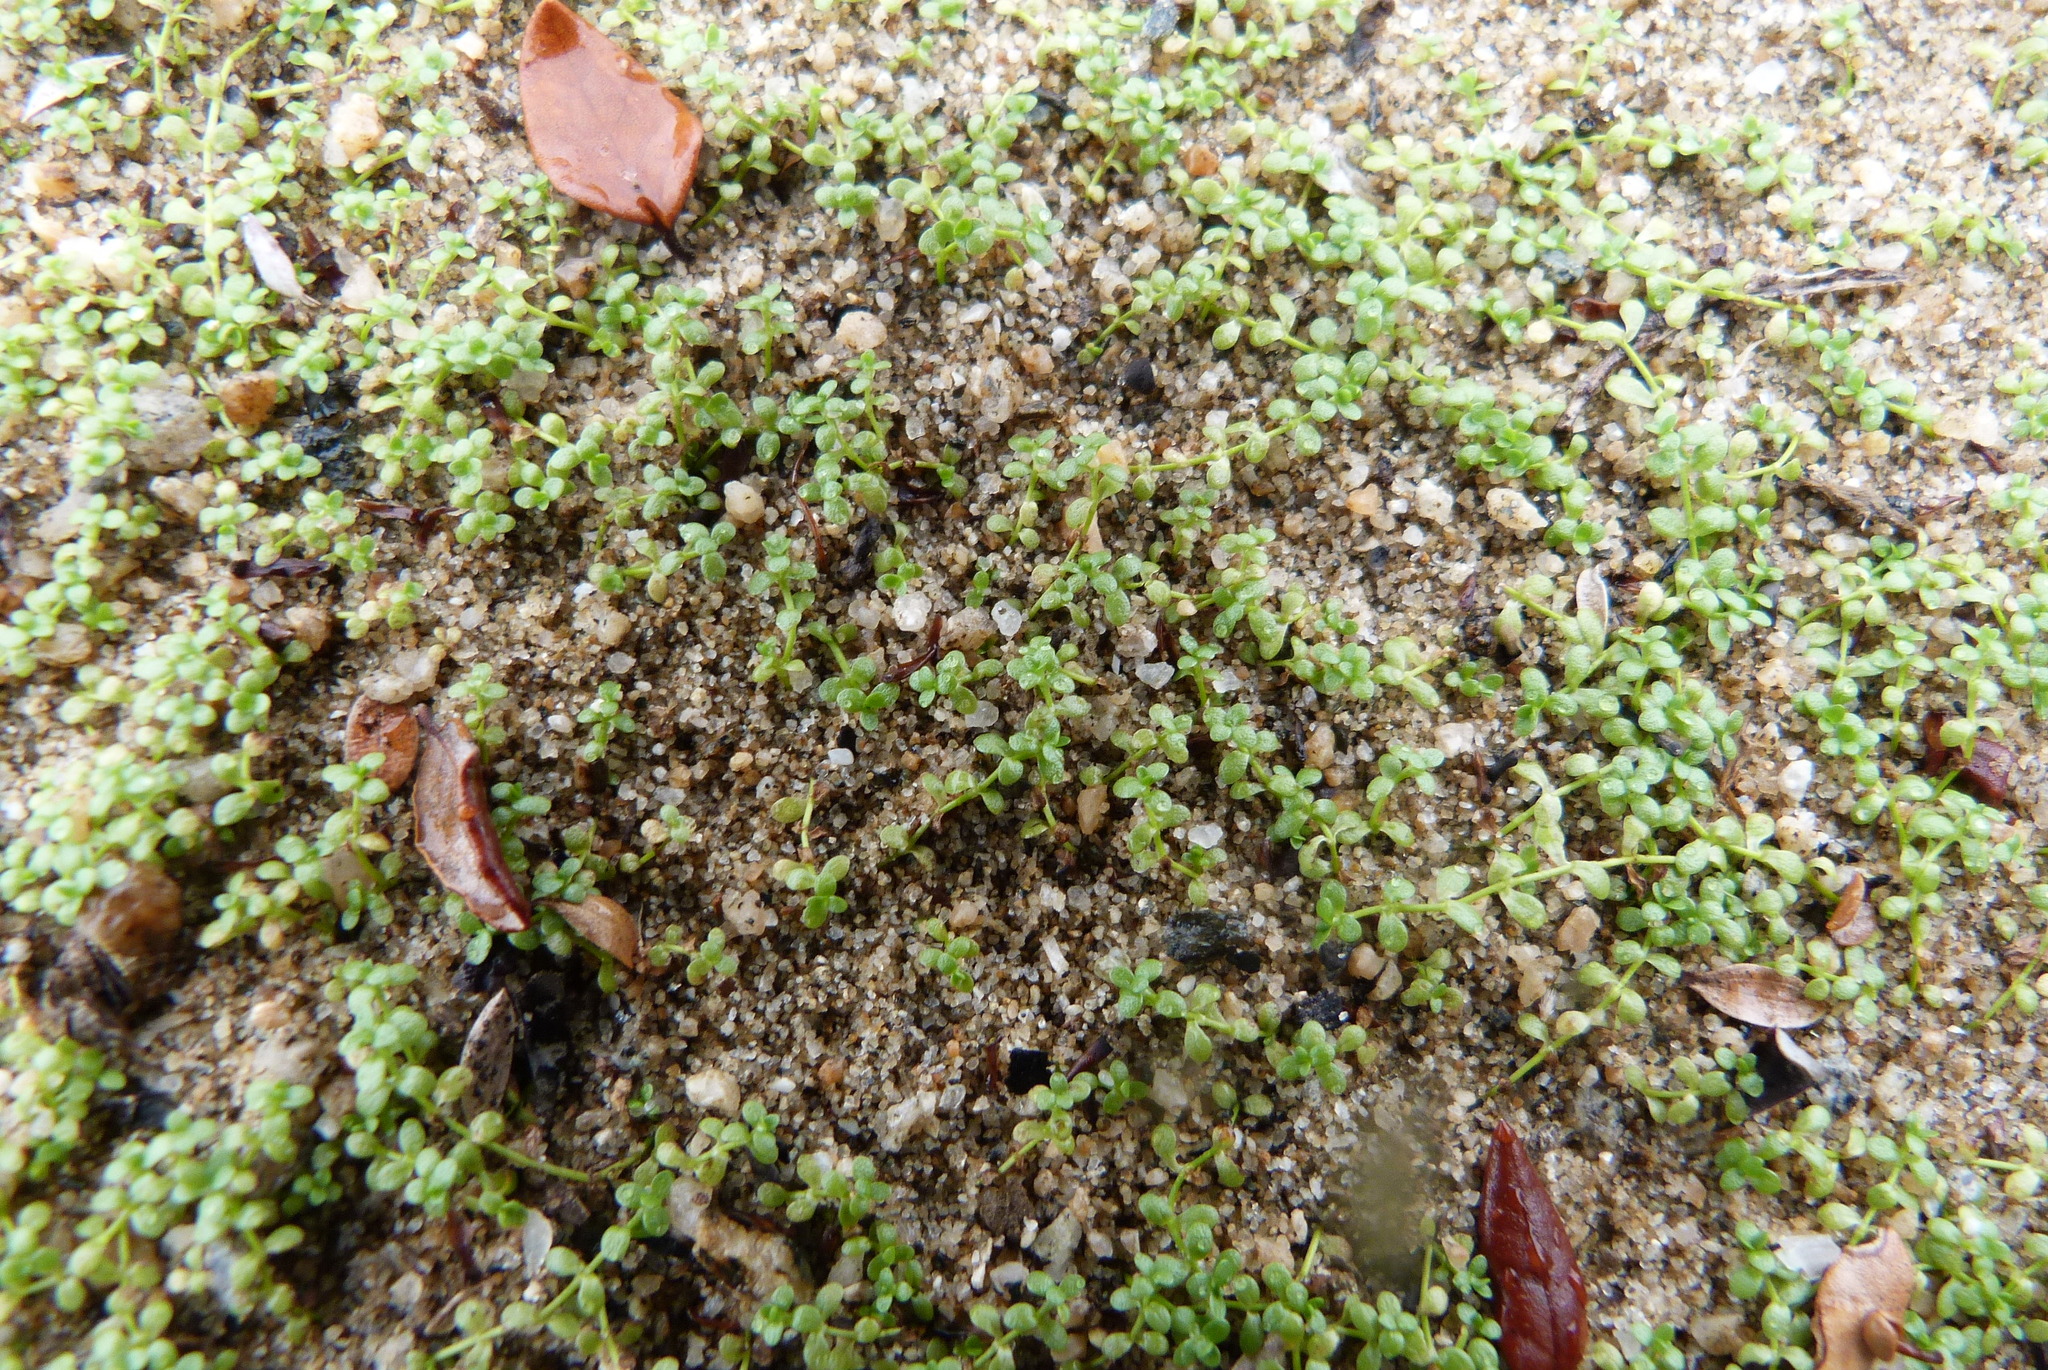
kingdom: Plantae
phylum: Tracheophyta
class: Magnoliopsida
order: Lamiales
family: Plantaginaceae
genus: Callitriche
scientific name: Callitriche petriei
